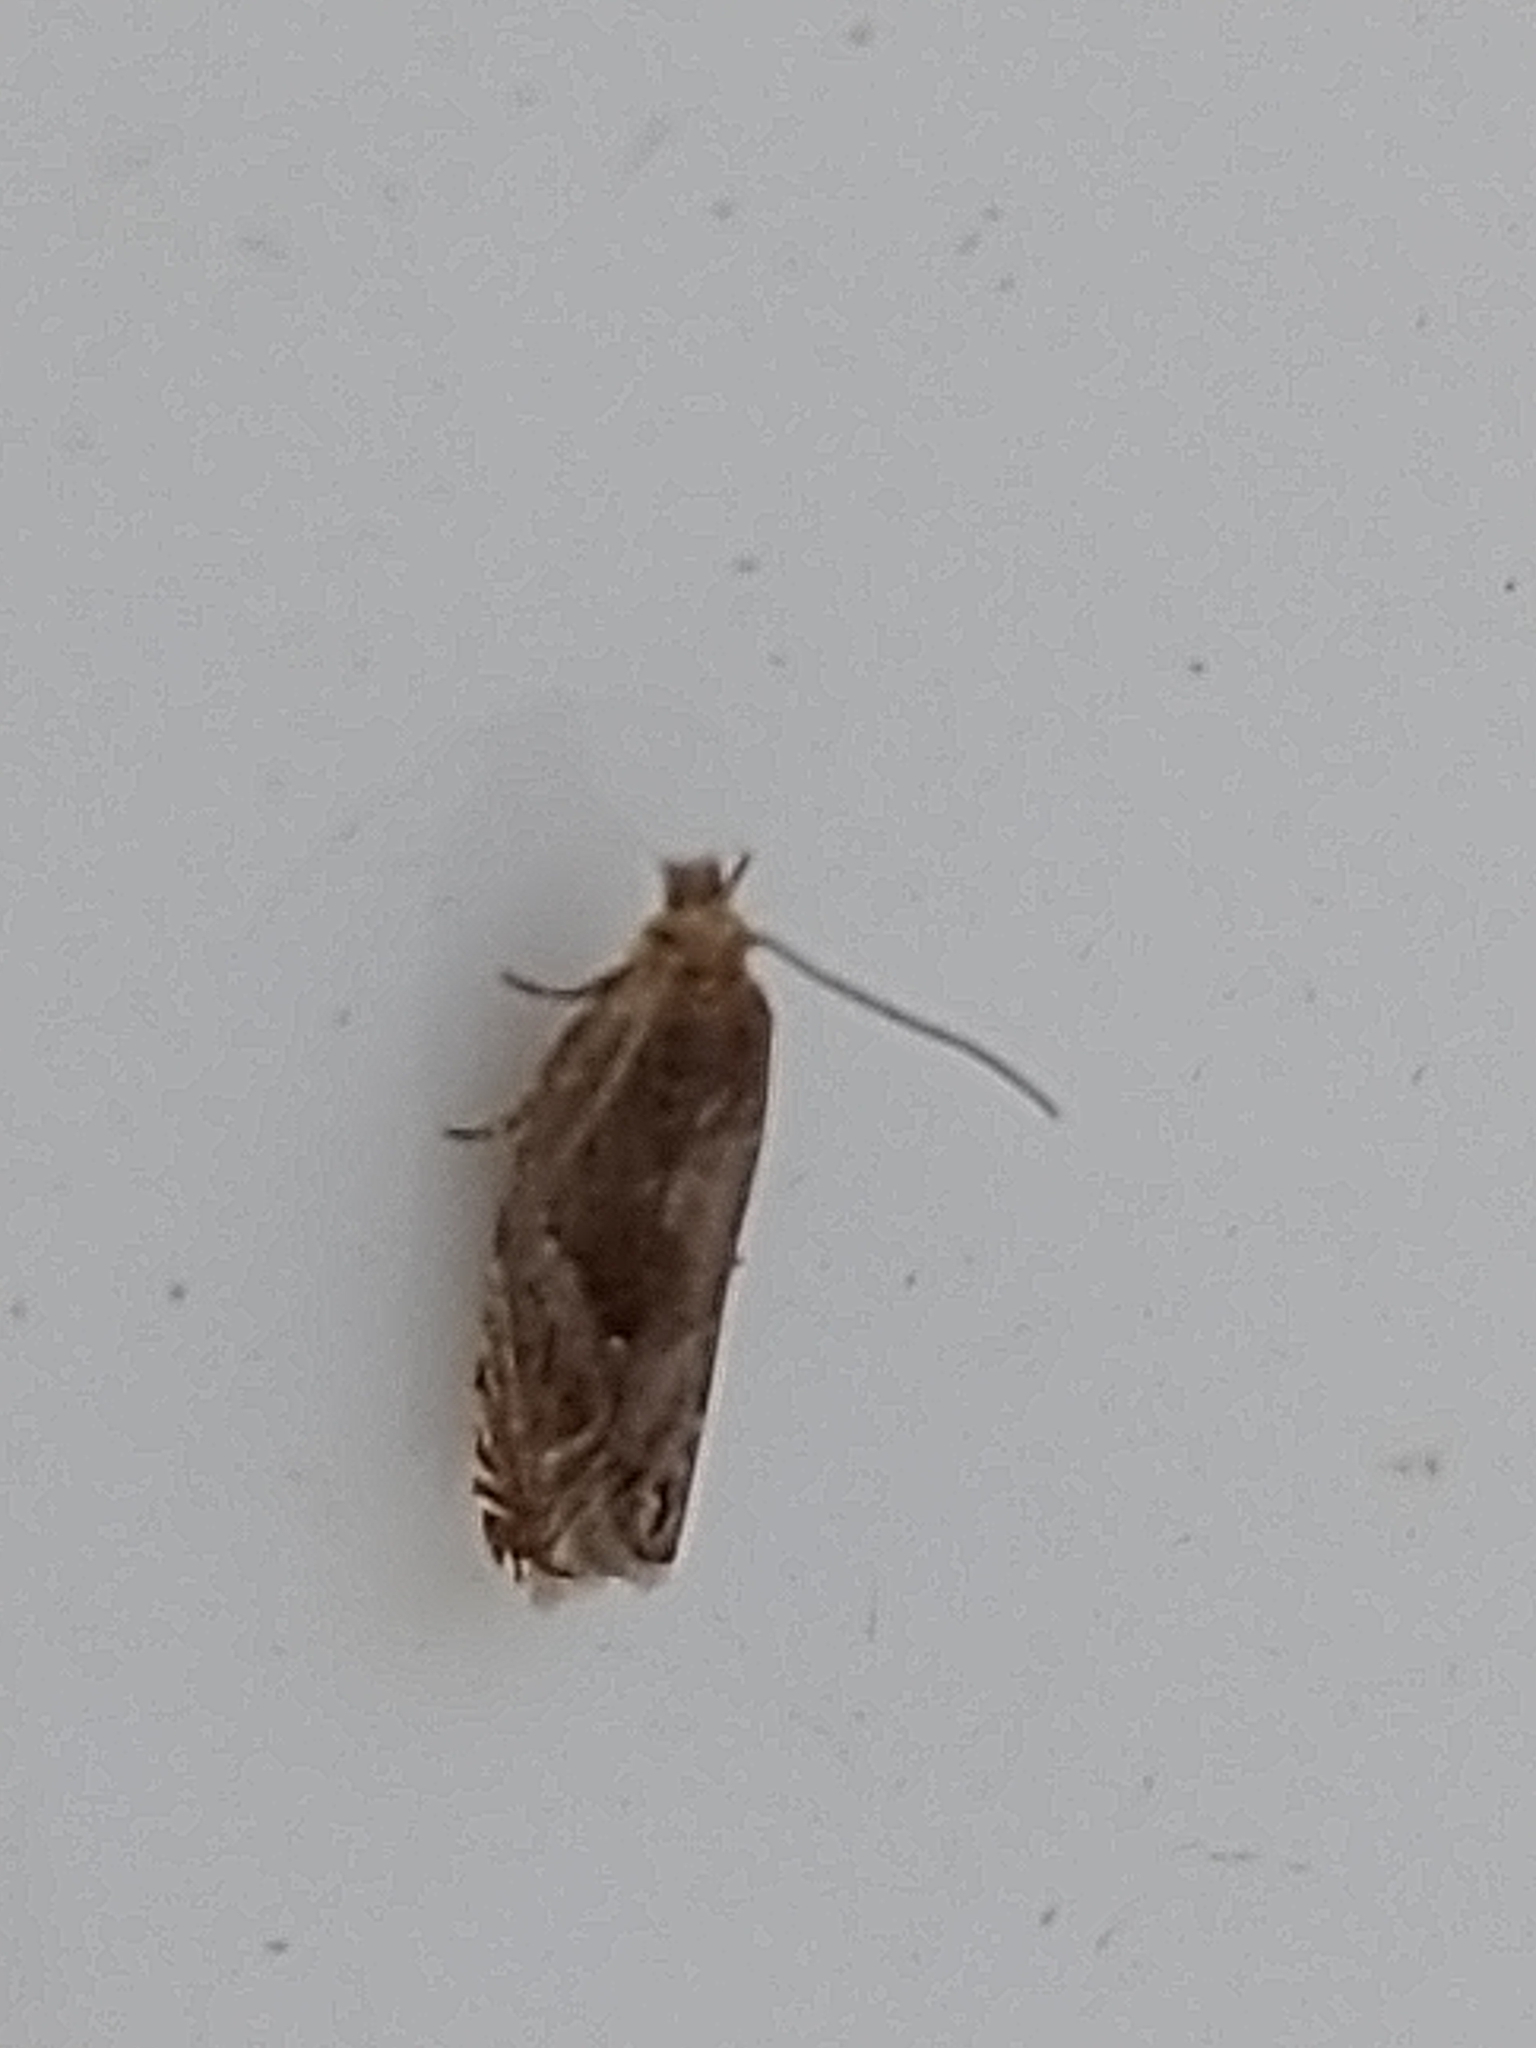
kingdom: Animalia
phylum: Arthropoda
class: Insecta
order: Lepidoptera
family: Tortricidae
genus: Ancylis
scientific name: Ancylis comptana
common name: Little roller
